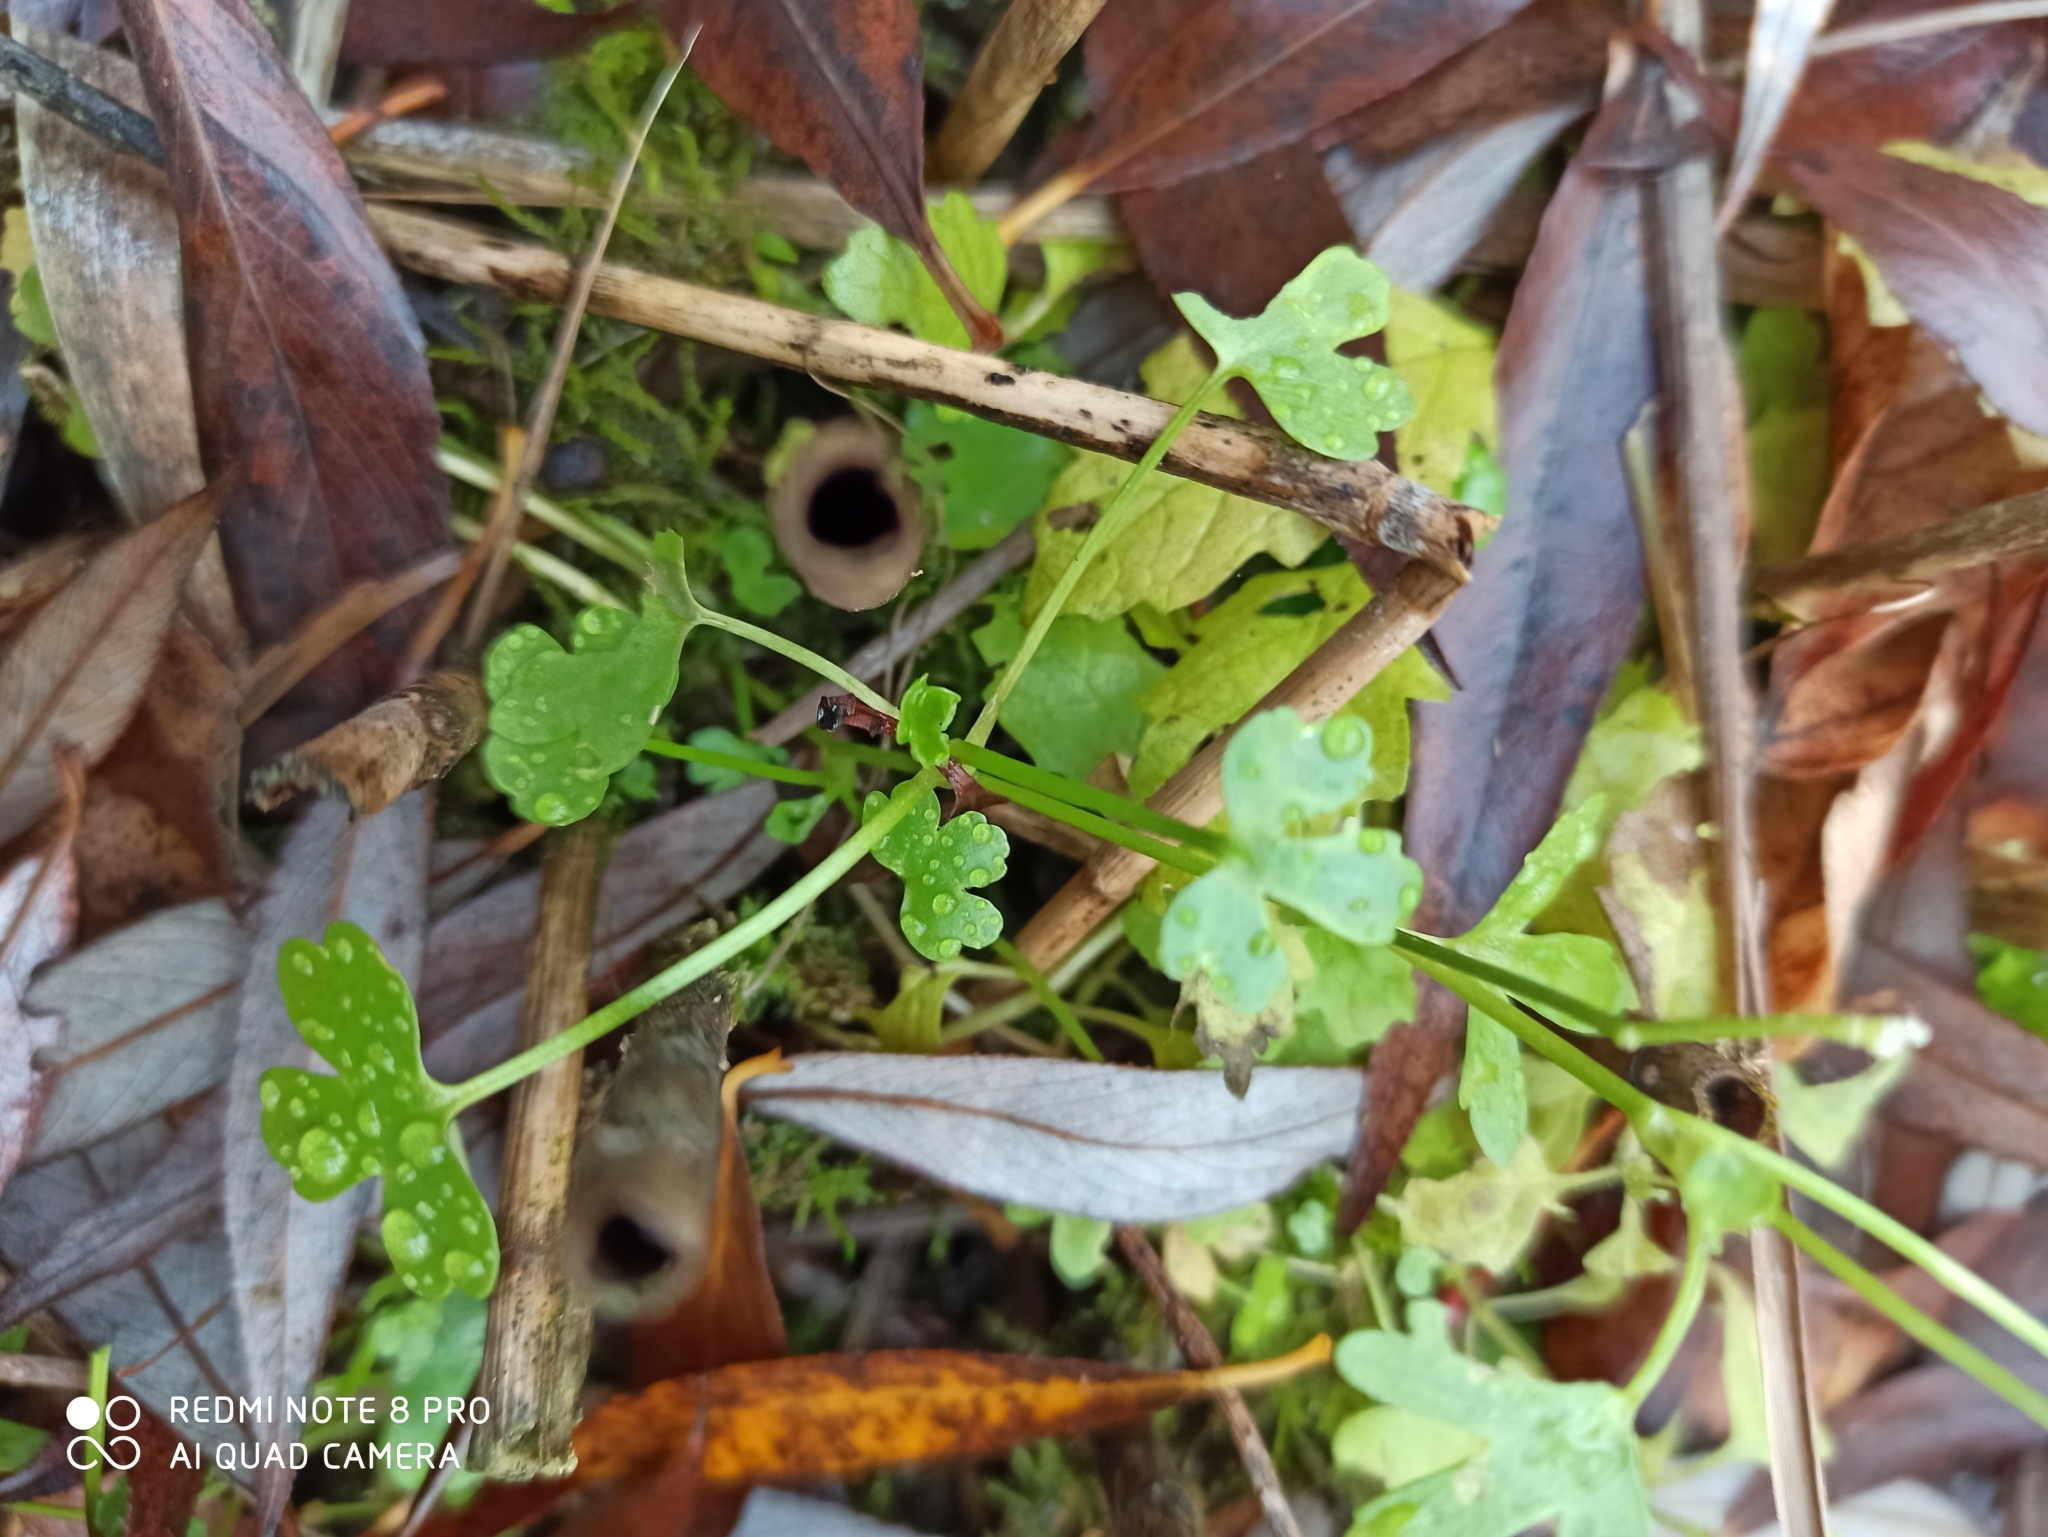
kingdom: Plantae
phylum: Tracheophyta
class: Magnoliopsida
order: Ranunculales
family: Ranunculaceae
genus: Ranunculus
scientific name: Ranunculus sceleratus
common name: Celery-leaved buttercup
